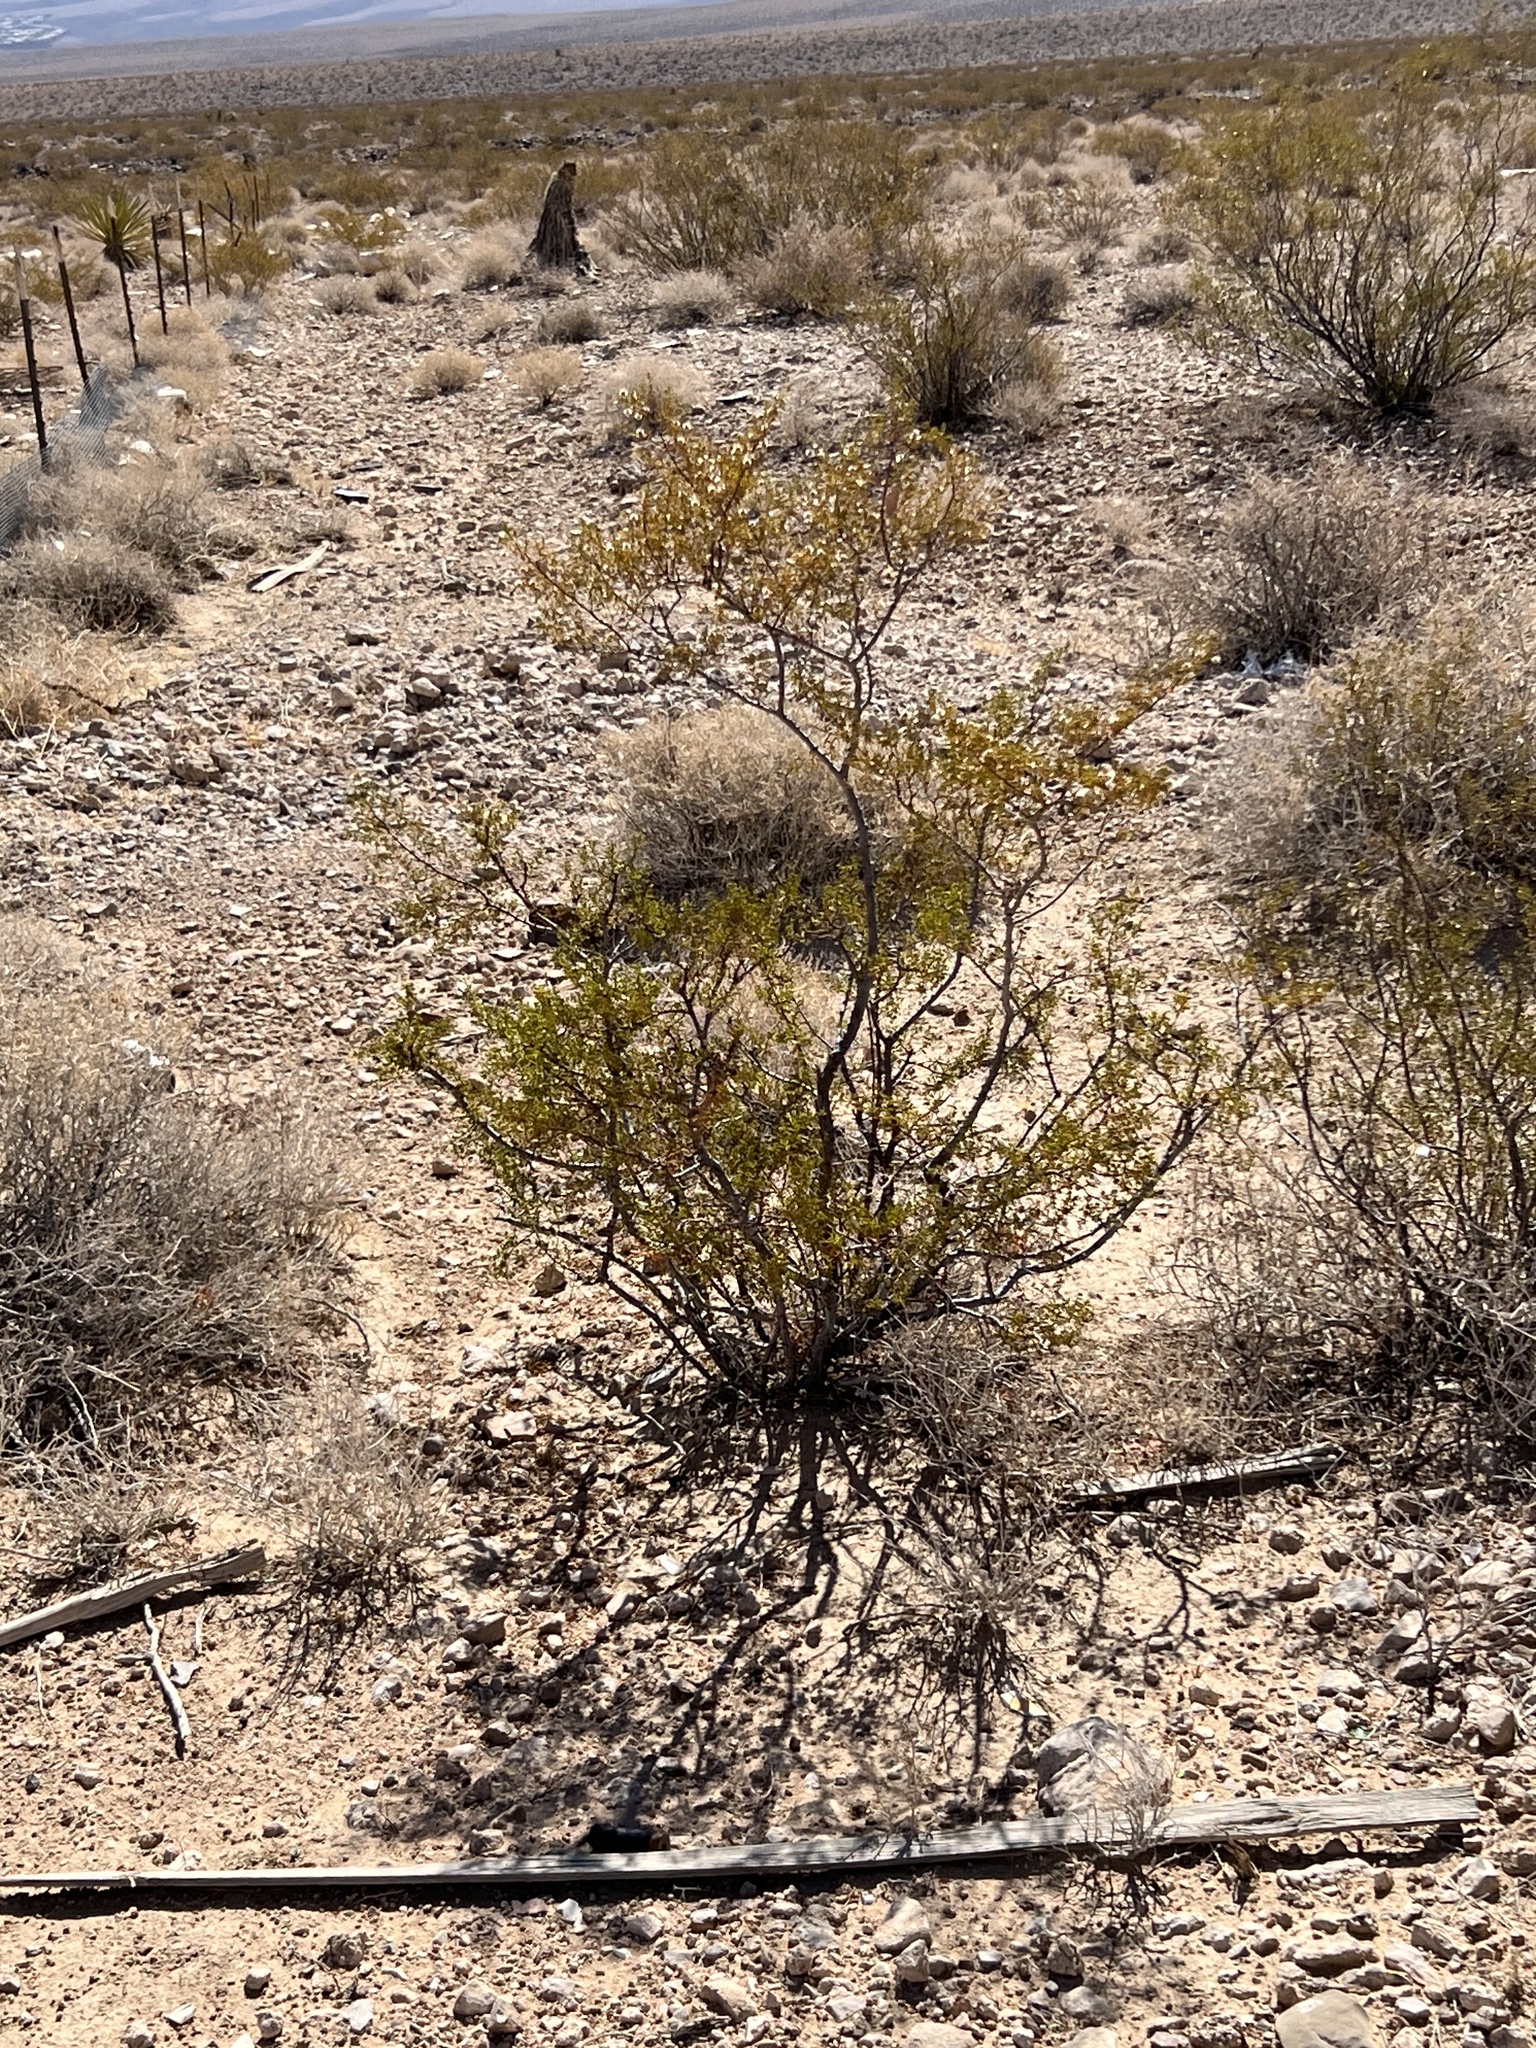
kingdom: Plantae
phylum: Tracheophyta
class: Magnoliopsida
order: Zygophyllales
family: Zygophyllaceae
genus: Larrea
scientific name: Larrea tridentata
